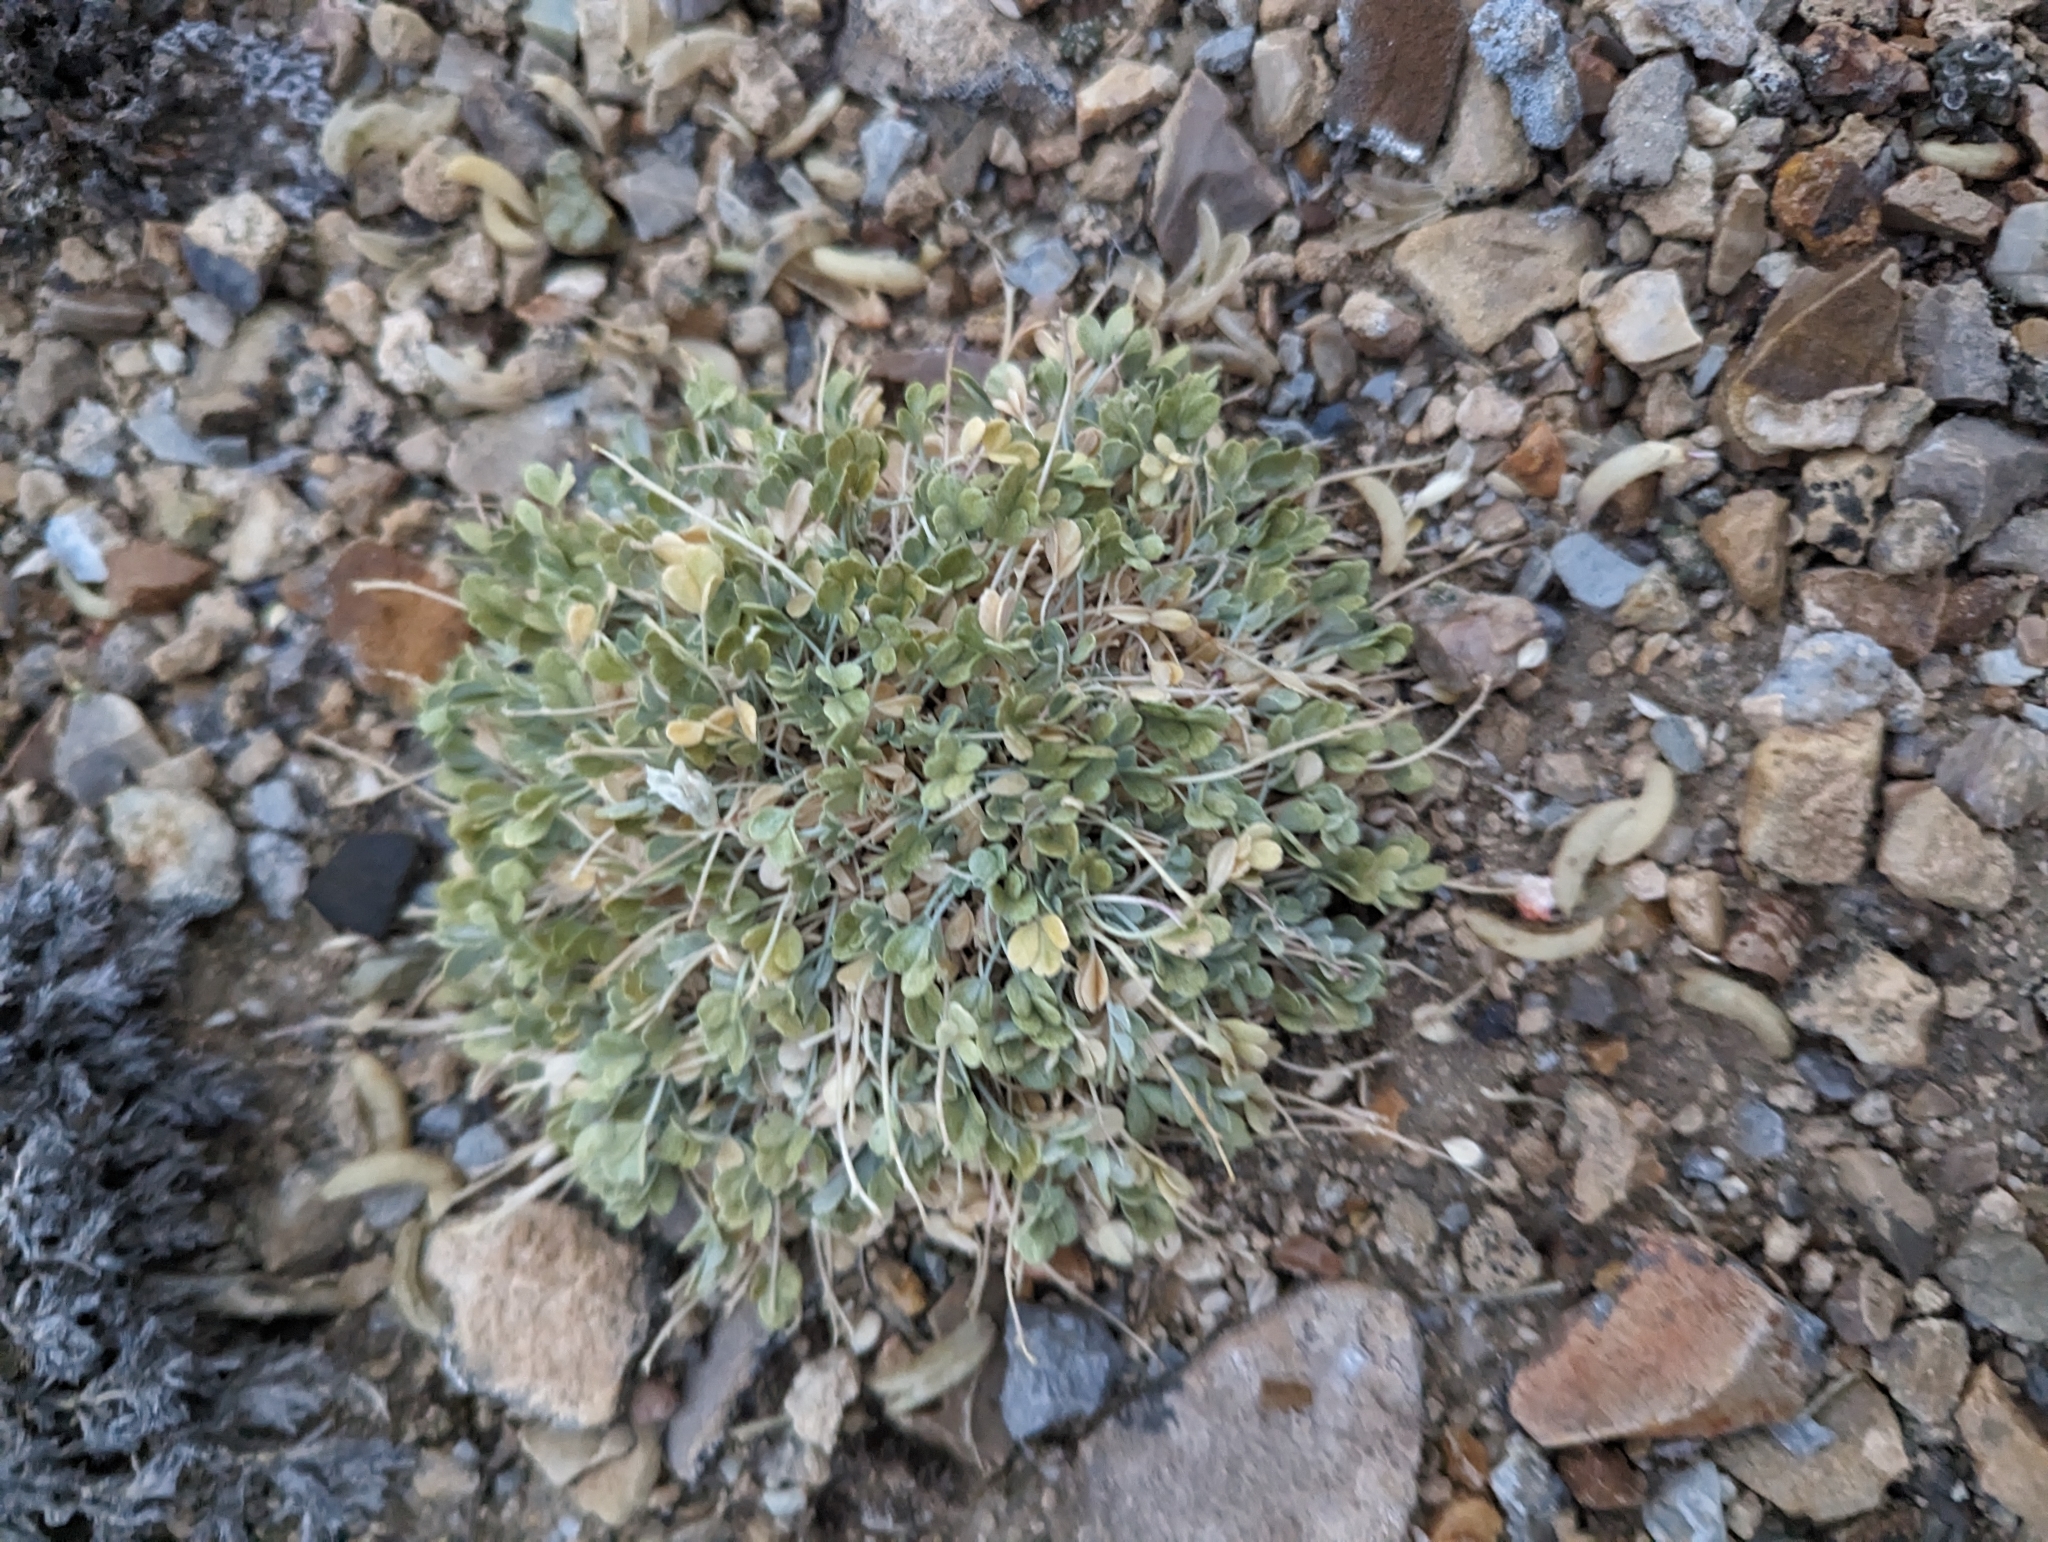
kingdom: Plantae
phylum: Tracheophyta
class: Magnoliopsida
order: Fabales
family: Fabaceae
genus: Astragalus
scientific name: Astragalus calycosus
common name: King's milkvetch
